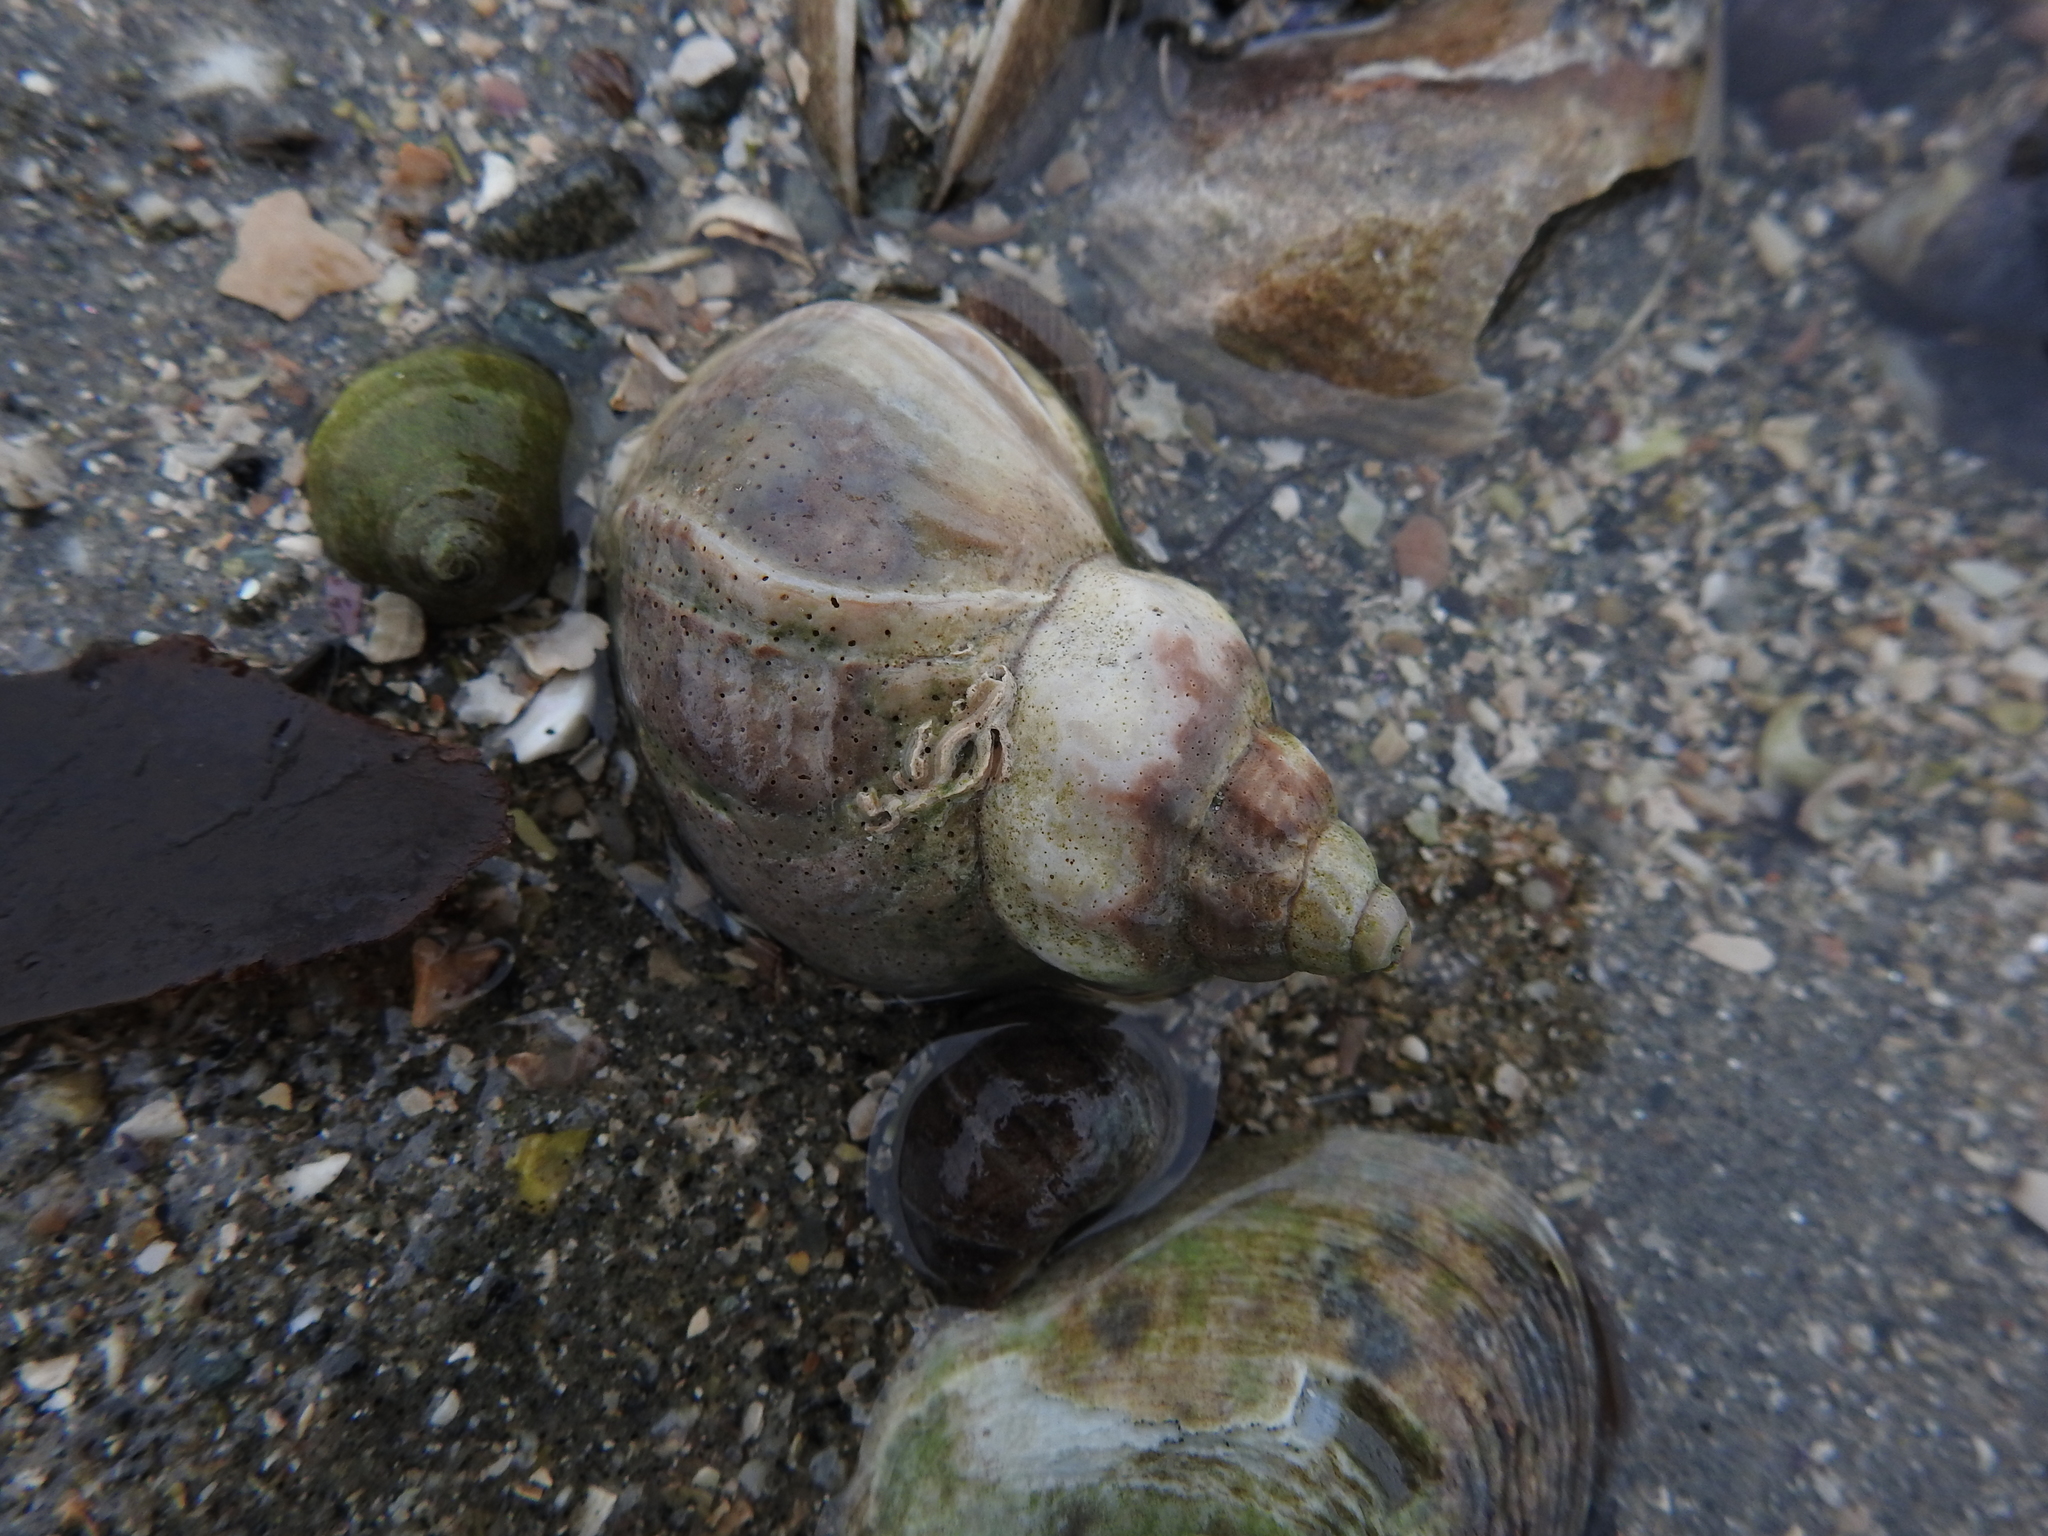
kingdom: Animalia
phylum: Mollusca
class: Gastropoda
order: Neogastropoda
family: Buccinidae
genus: Buccinum
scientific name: Buccinum undatum
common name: Common whelk
